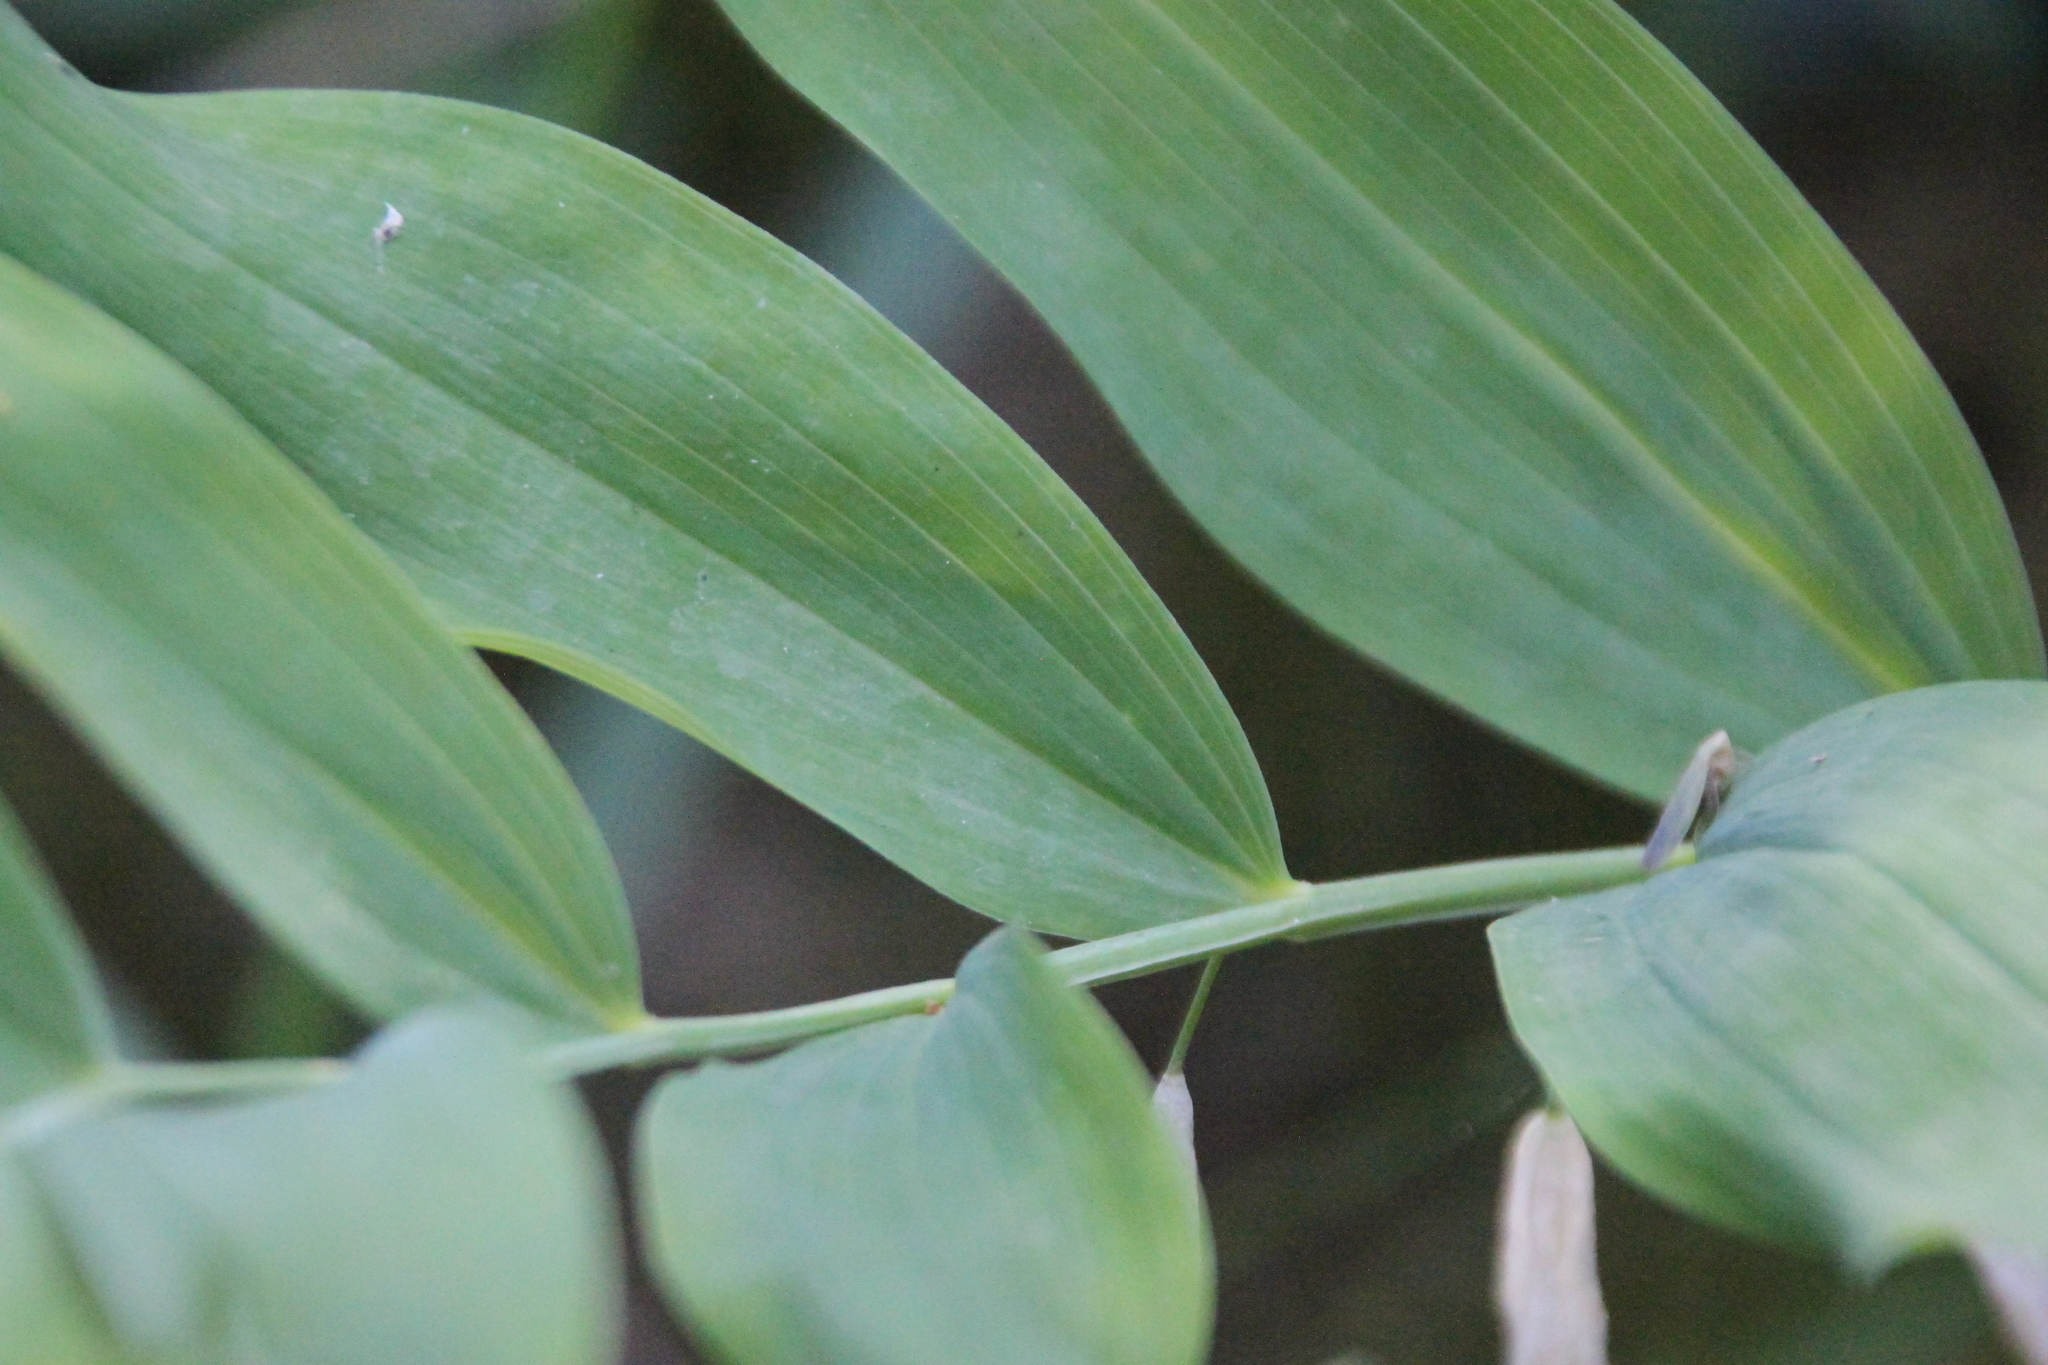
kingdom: Plantae
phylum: Tracheophyta
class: Liliopsida
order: Asparagales
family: Asparagaceae
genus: Polygonatum
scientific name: Polygonatum odoratum
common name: Angular solomon's-seal
